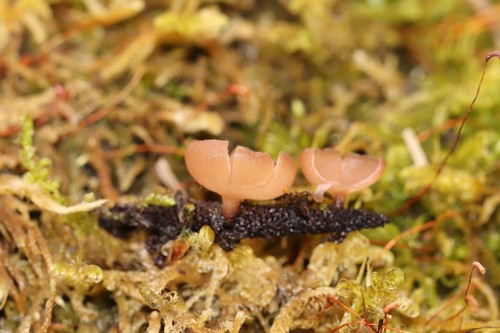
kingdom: Fungi
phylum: Ascomycota
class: Leotiomycetes
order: Helotiales
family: Sclerotiniaceae
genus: Ciboria
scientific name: Ciboria caucus
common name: Alder goblet
